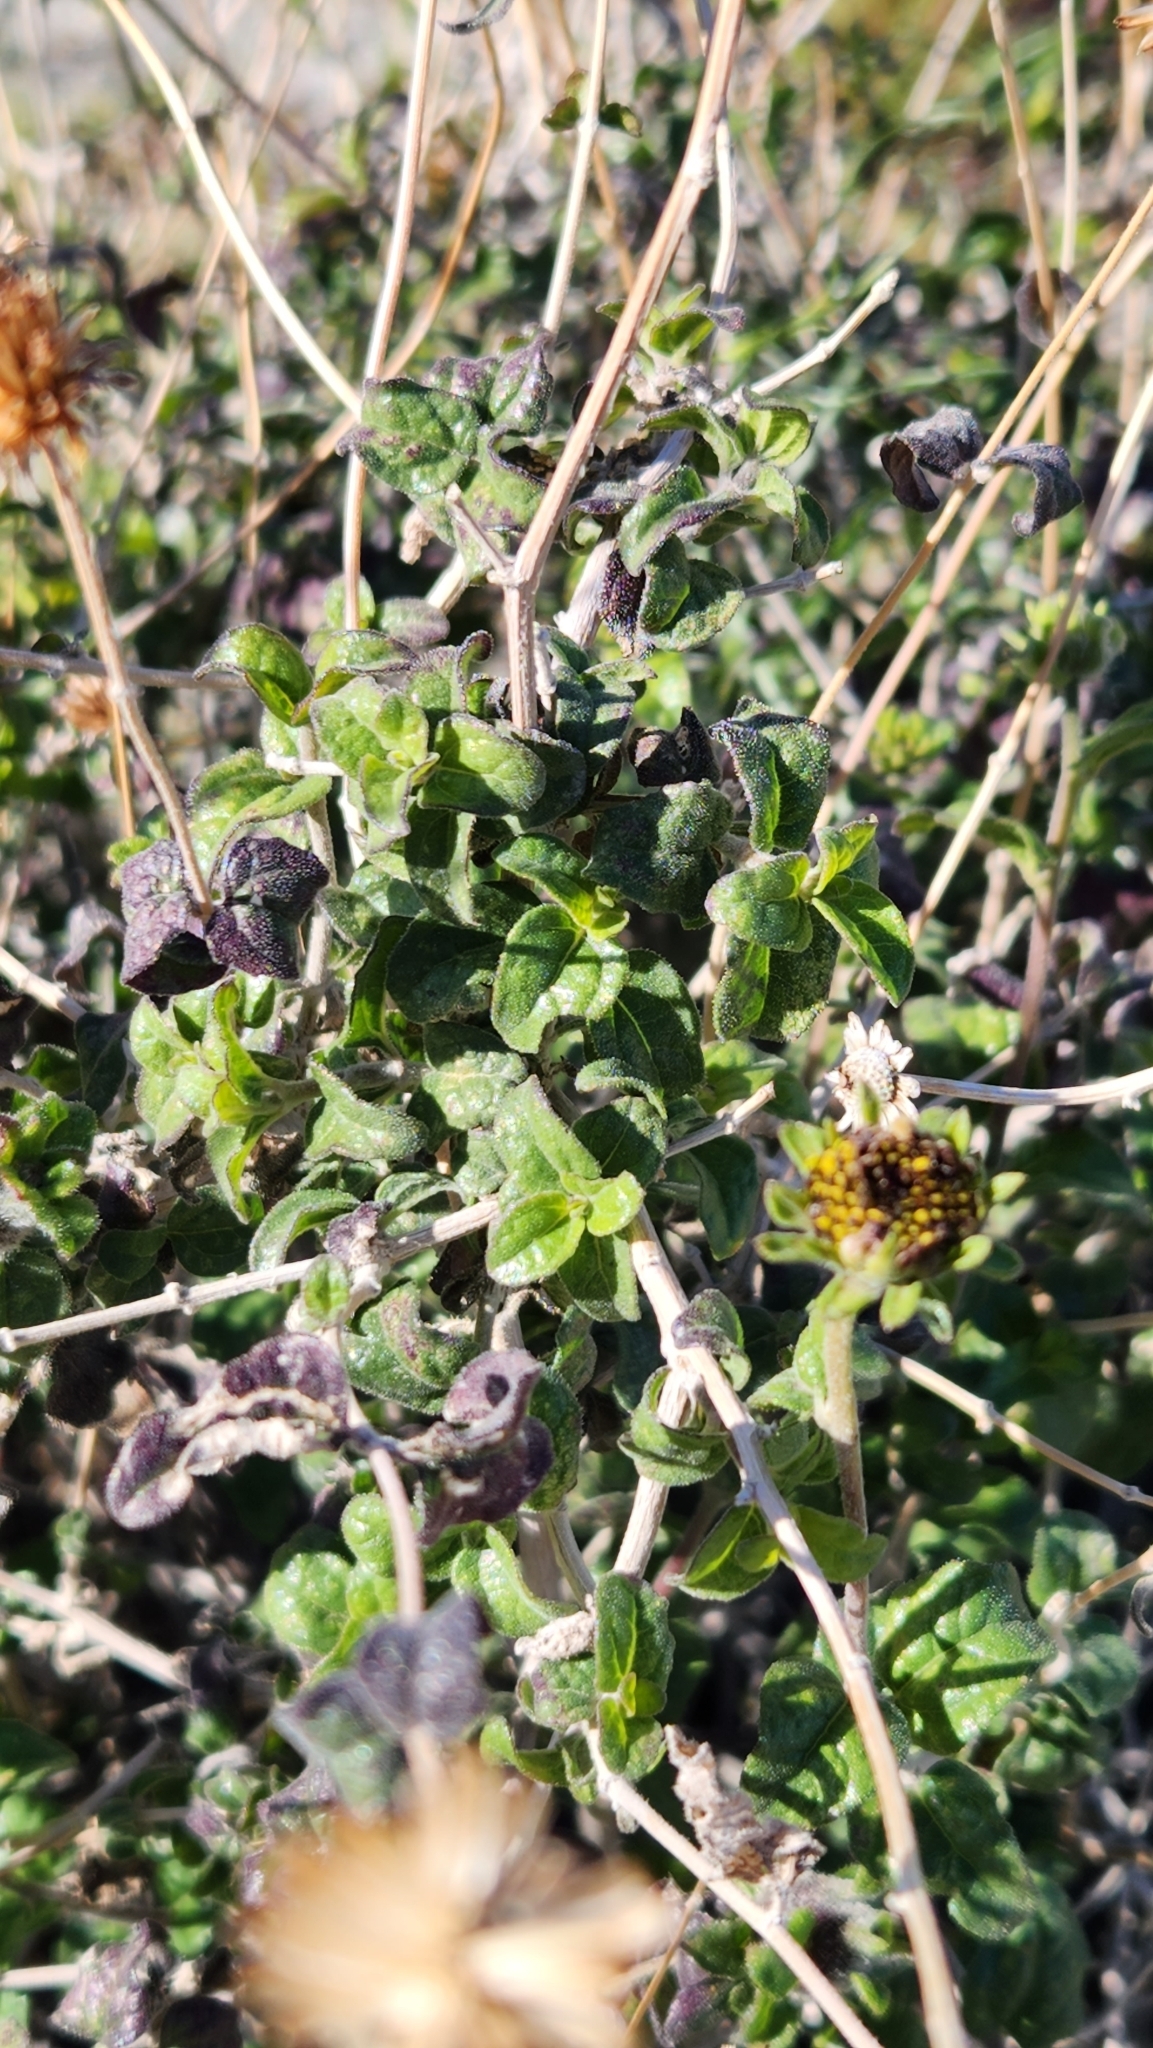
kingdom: Plantae
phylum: Tracheophyta
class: Magnoliopsida
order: Asterales
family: Asteraceae
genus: Bahiopsis
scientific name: Bahiopsis parishii
